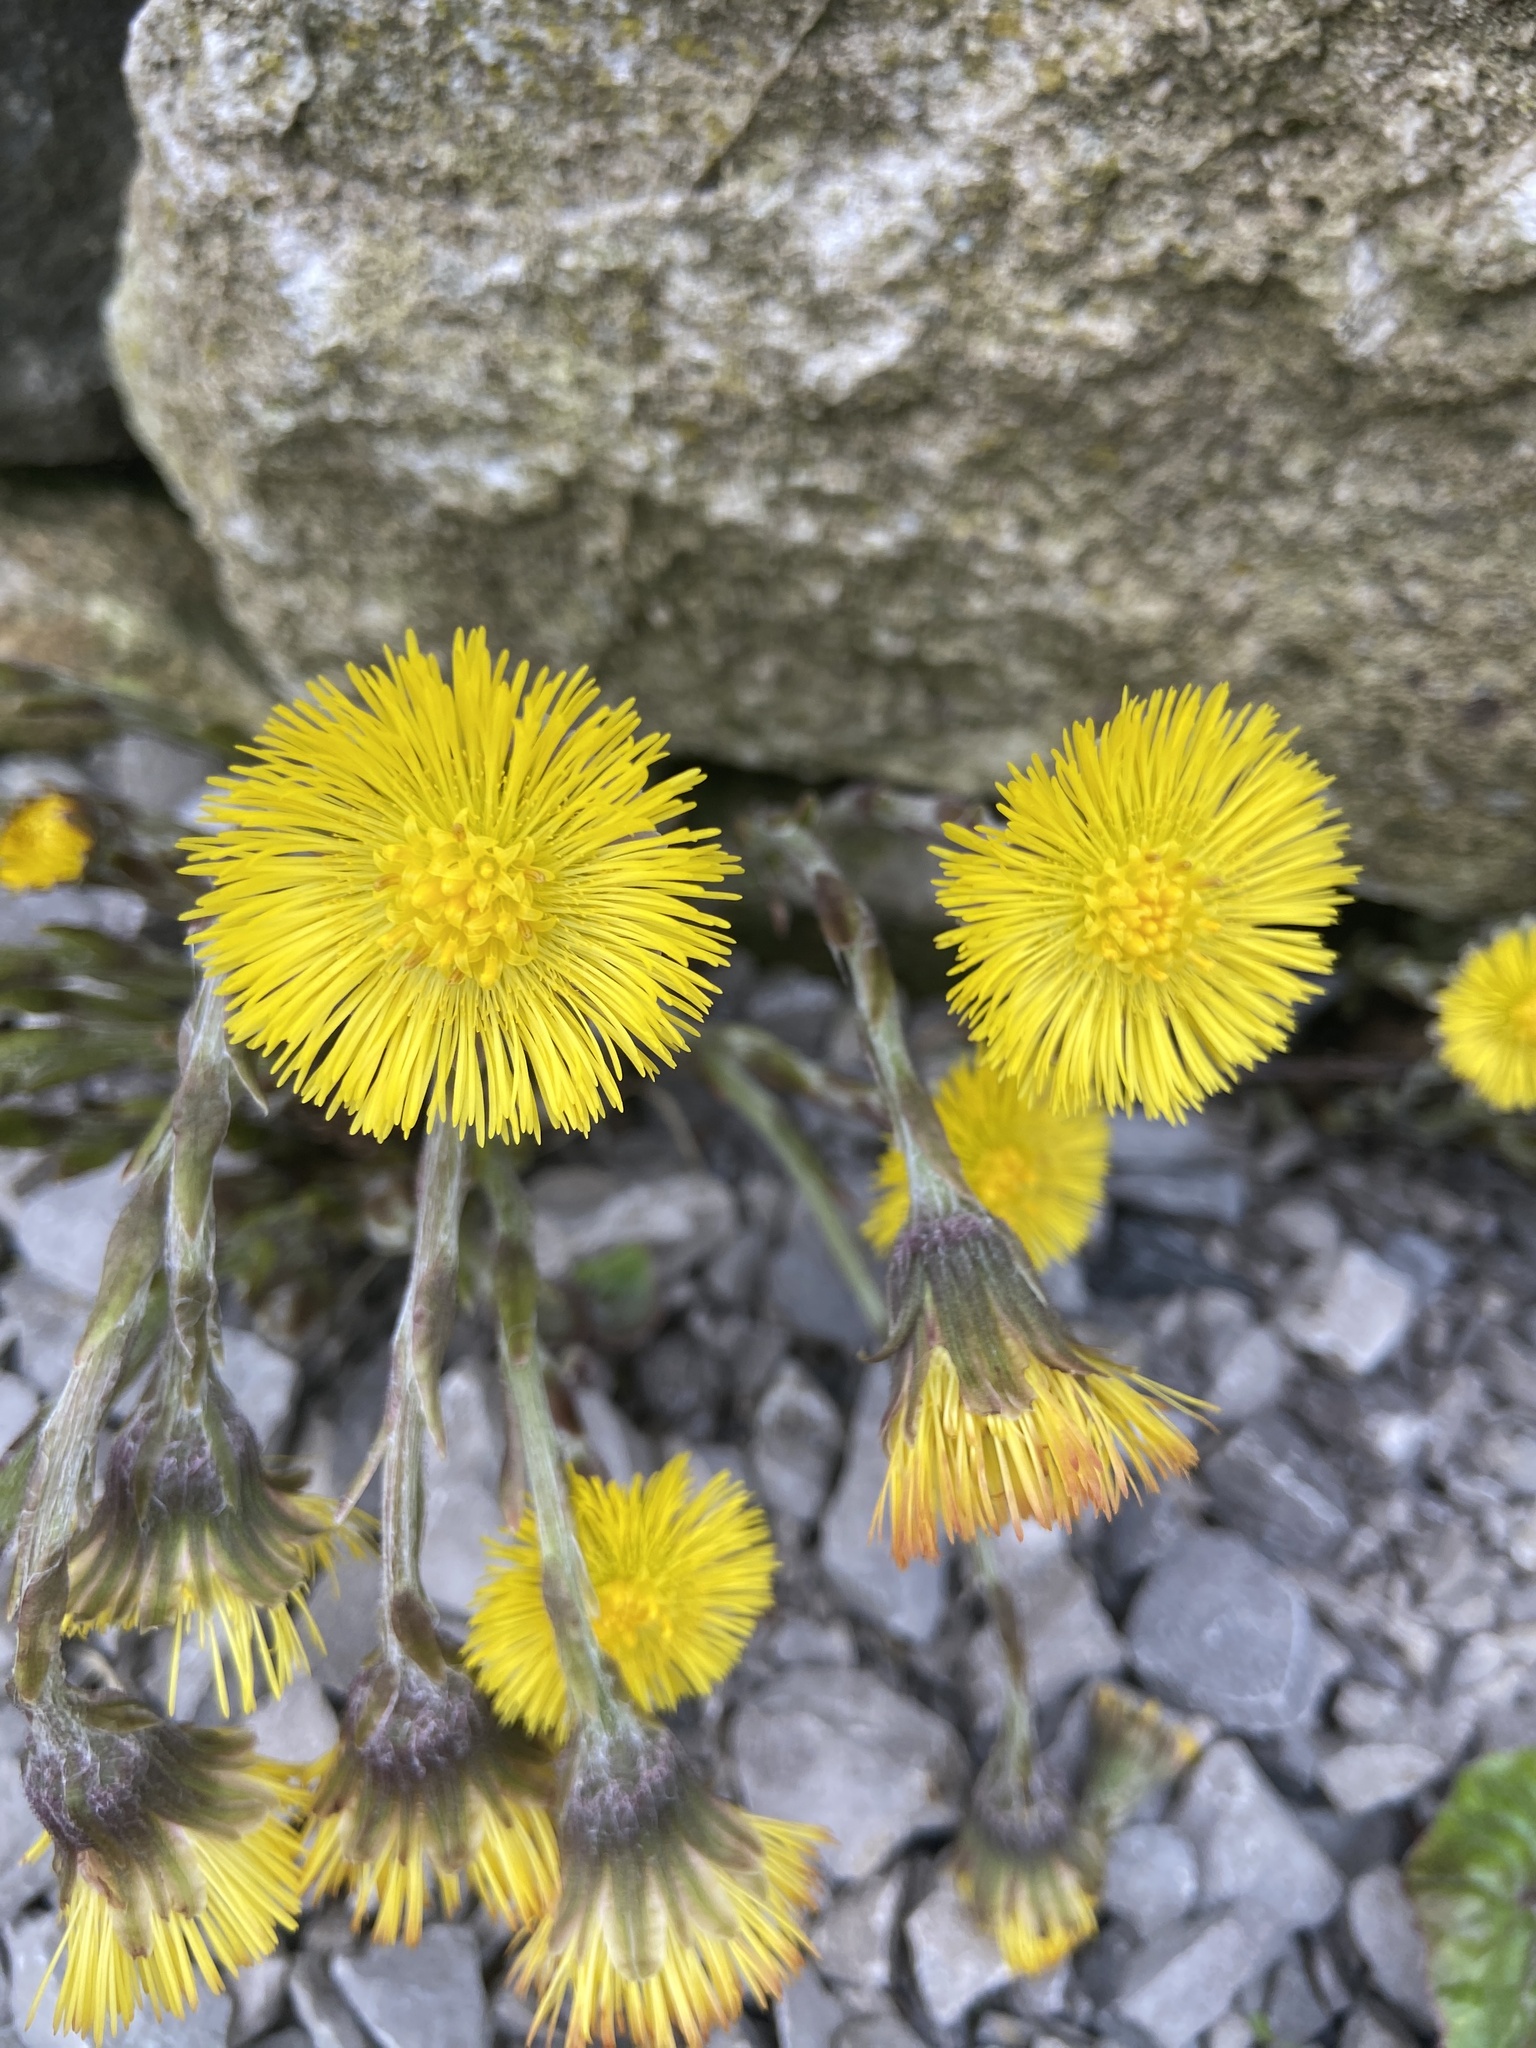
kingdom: Plantae
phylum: Tracheophyta
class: Magnoliopsida
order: Asterales
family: Asteraceae
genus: Tussilago
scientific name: Tussilago farfara
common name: Coltsfoot
